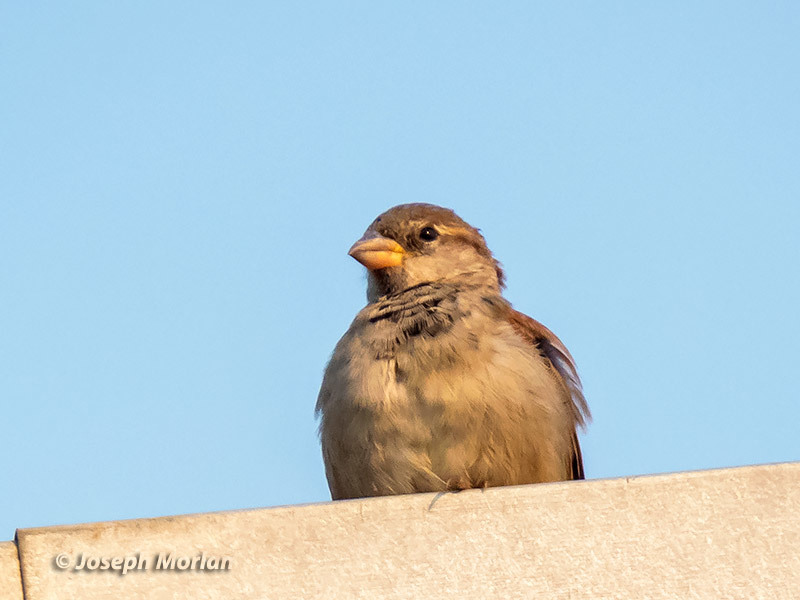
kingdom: Animalia
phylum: Chordata
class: Aves
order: Passeriformes
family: Passeridae
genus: Passer
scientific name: Passer domesticus
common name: House sparrow
